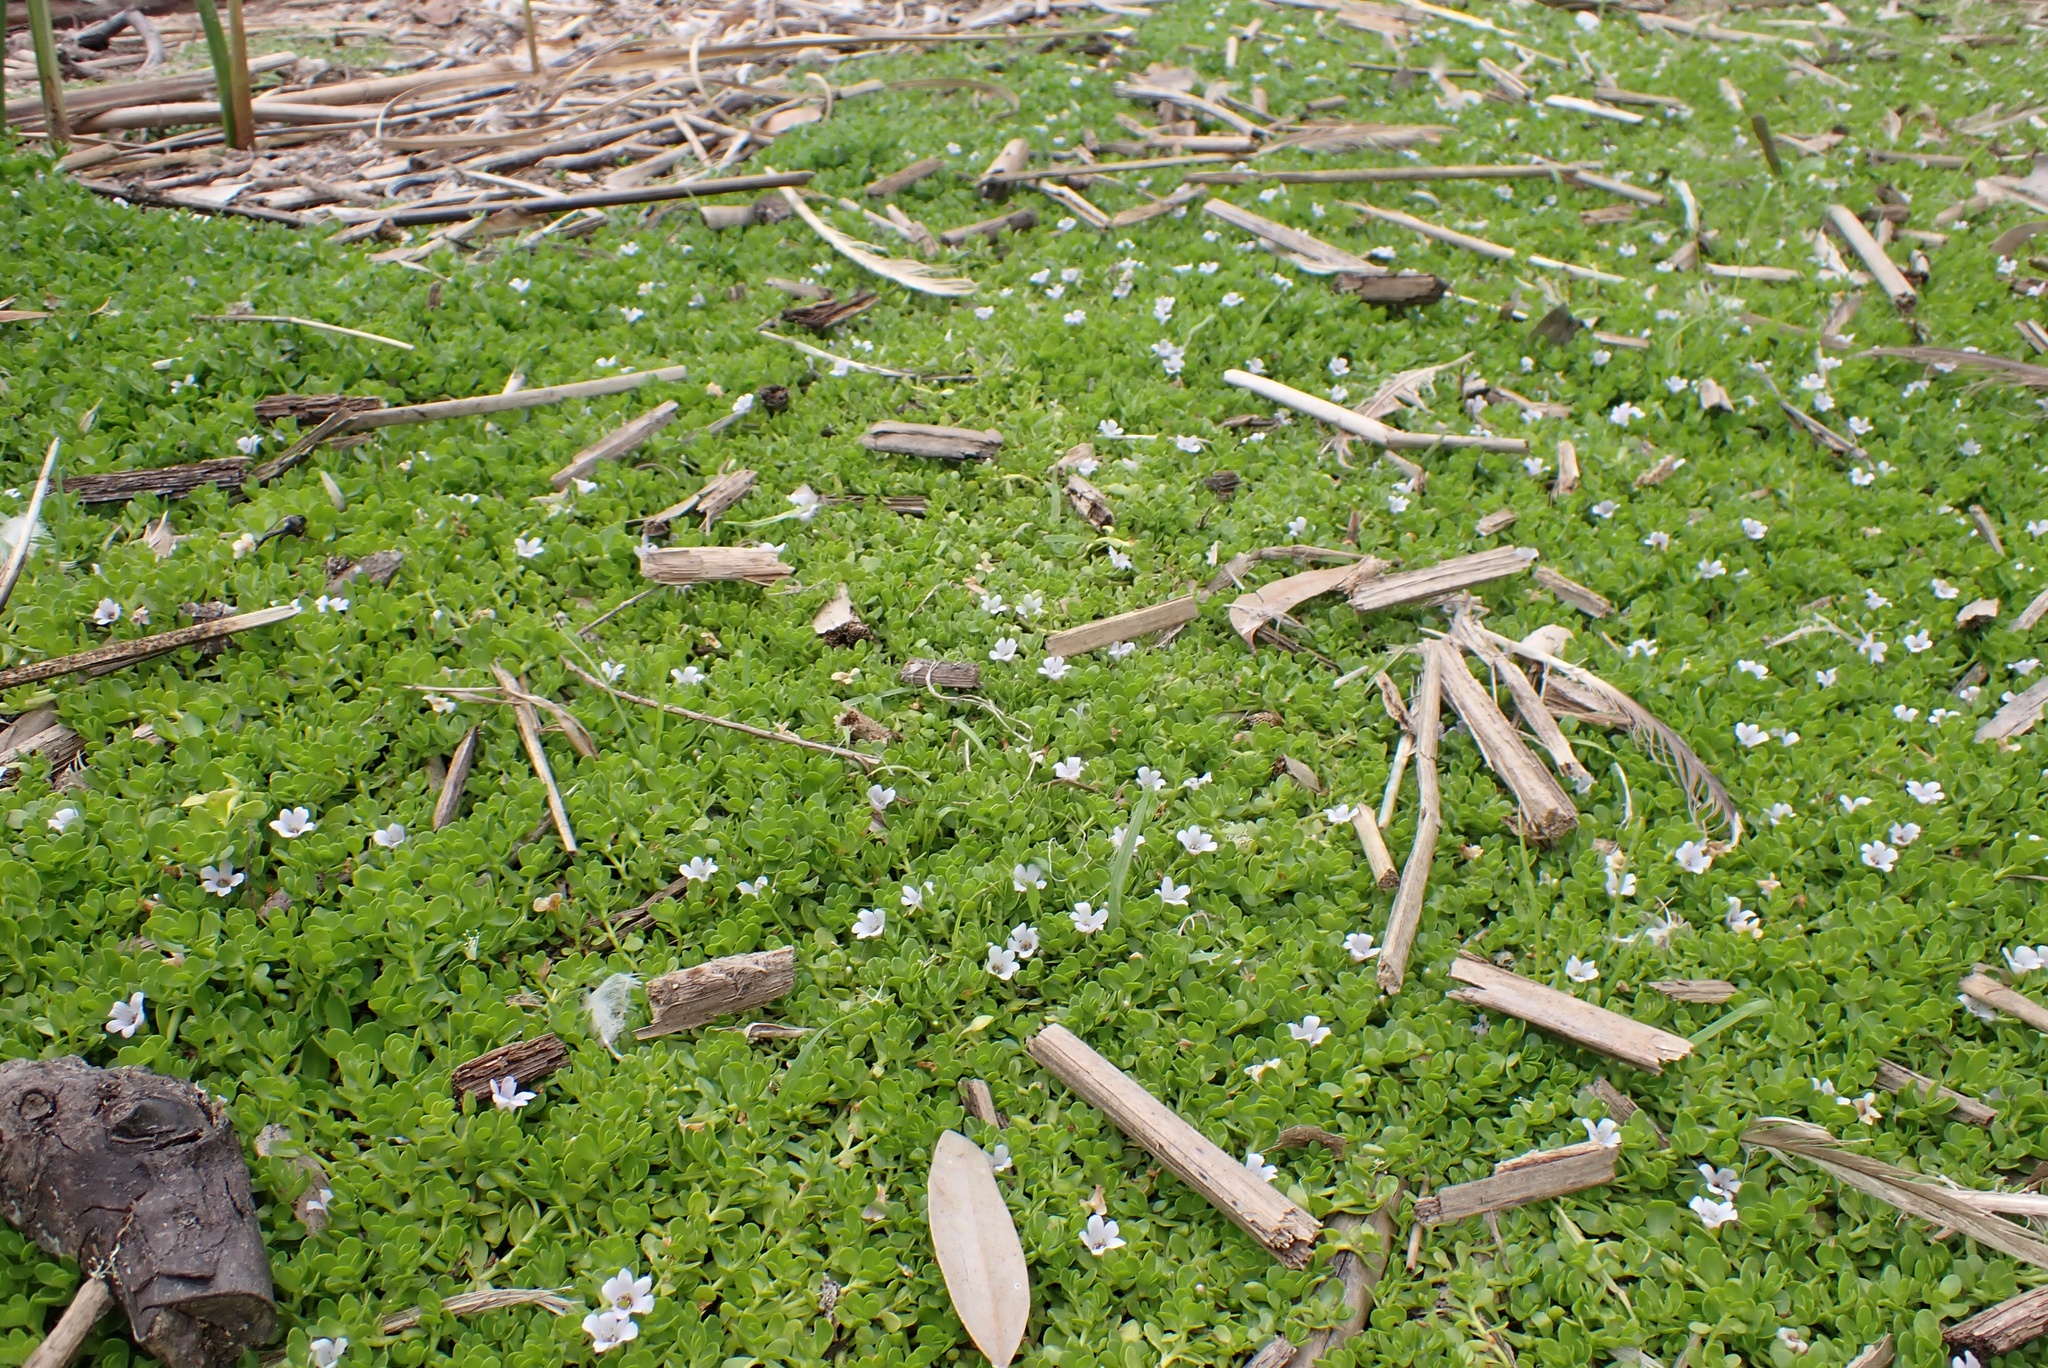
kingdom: Plantae
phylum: Tracheophyta
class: Magnoliopsida
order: Lamiales
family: Plantaginaceae
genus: Bacopa
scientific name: Bacopa monnieri
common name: Indian-pennywort
